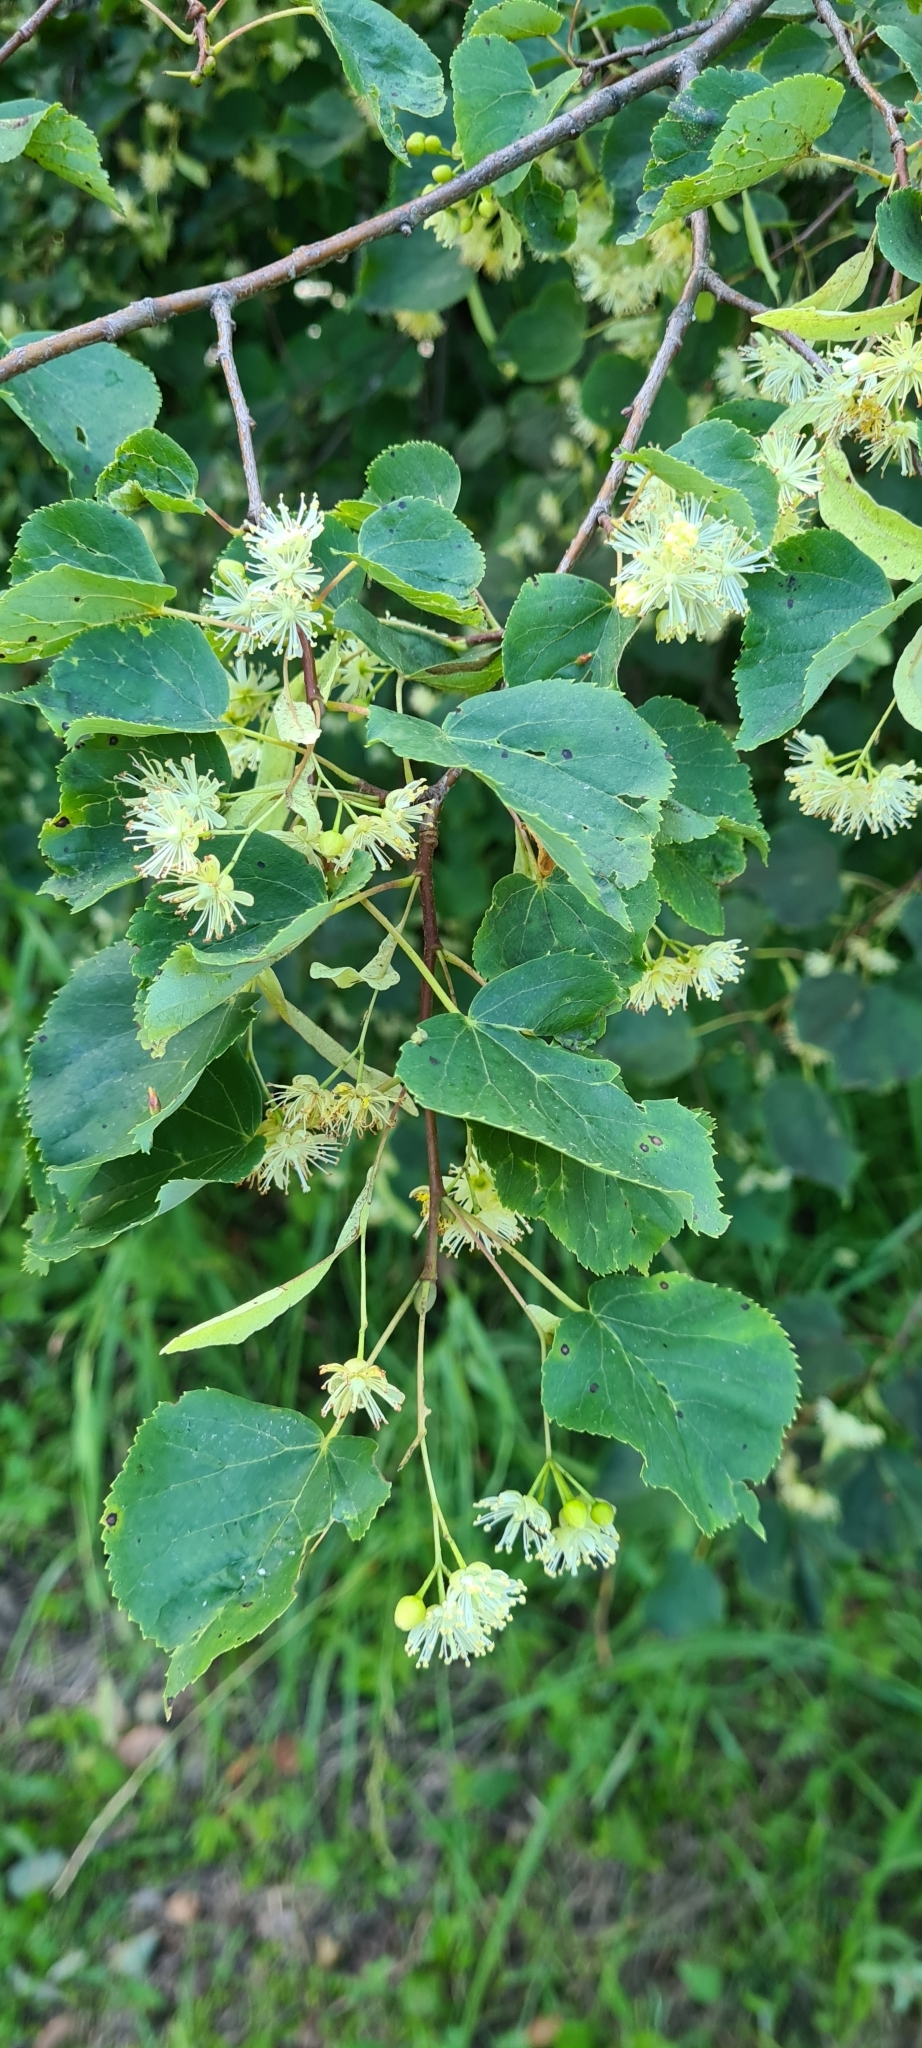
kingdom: Plantae
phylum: Tracheophyta
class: Magnoliopsida
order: Malvales
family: Malvaceae
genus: Tilia
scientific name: Tilia cordata
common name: Small-leaved lime
